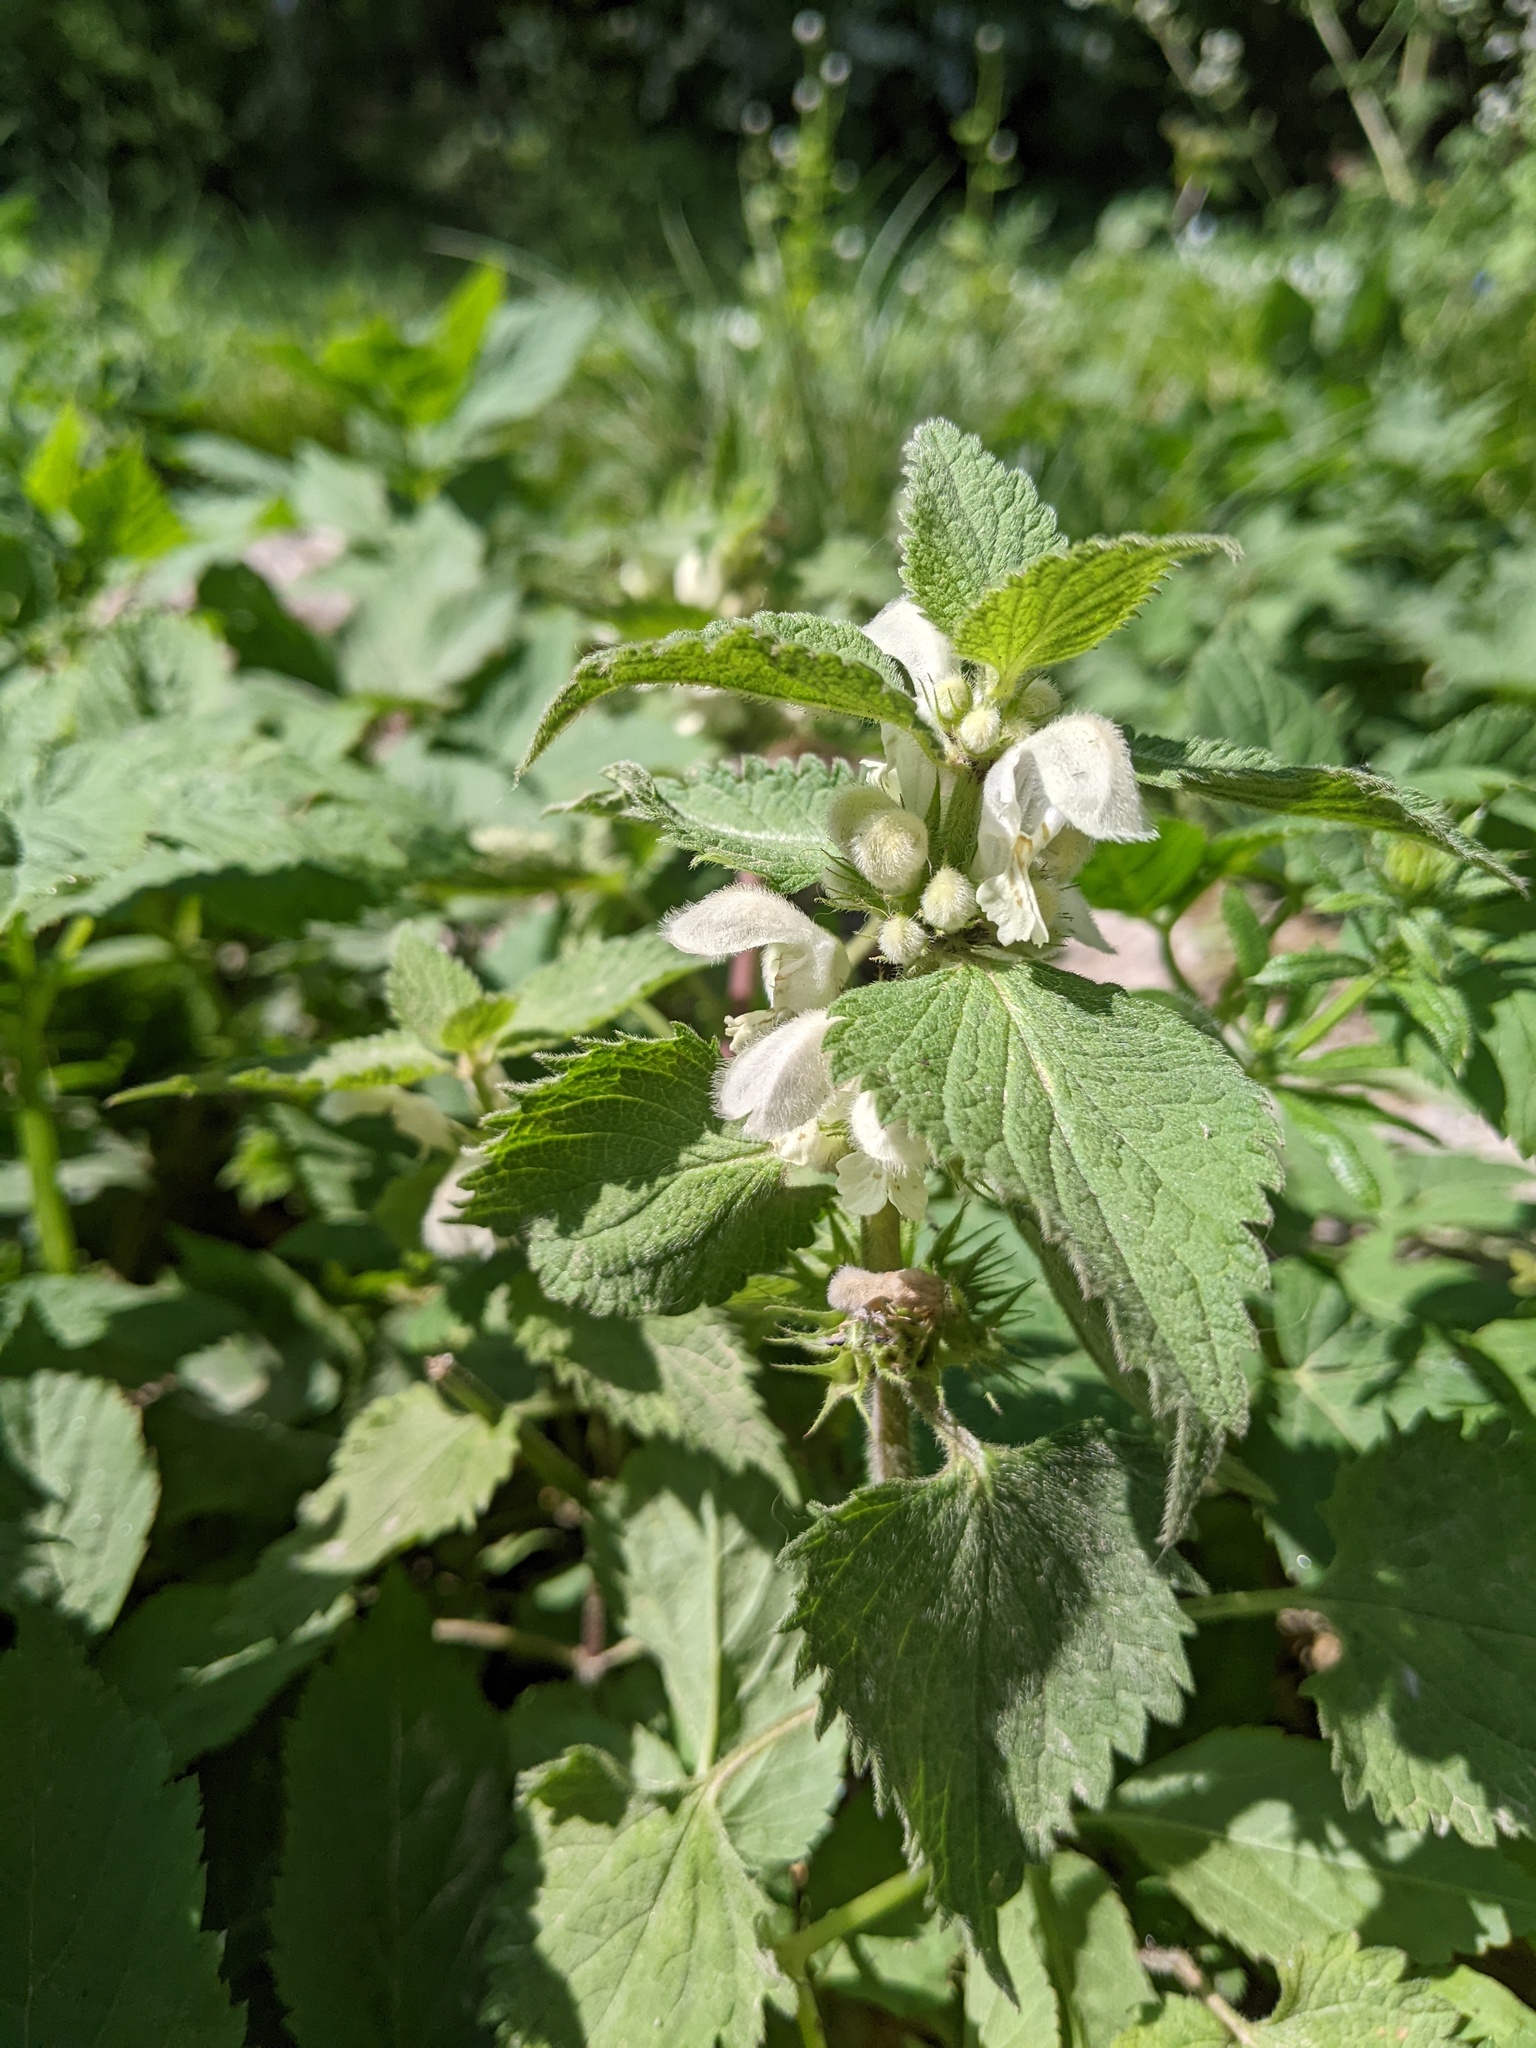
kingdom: Plantae
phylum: Tracheophyta
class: Magnoliopsida
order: Lamiales
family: Lamiaceae
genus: Lamium
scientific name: Lamium album
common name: White dead-nettle
